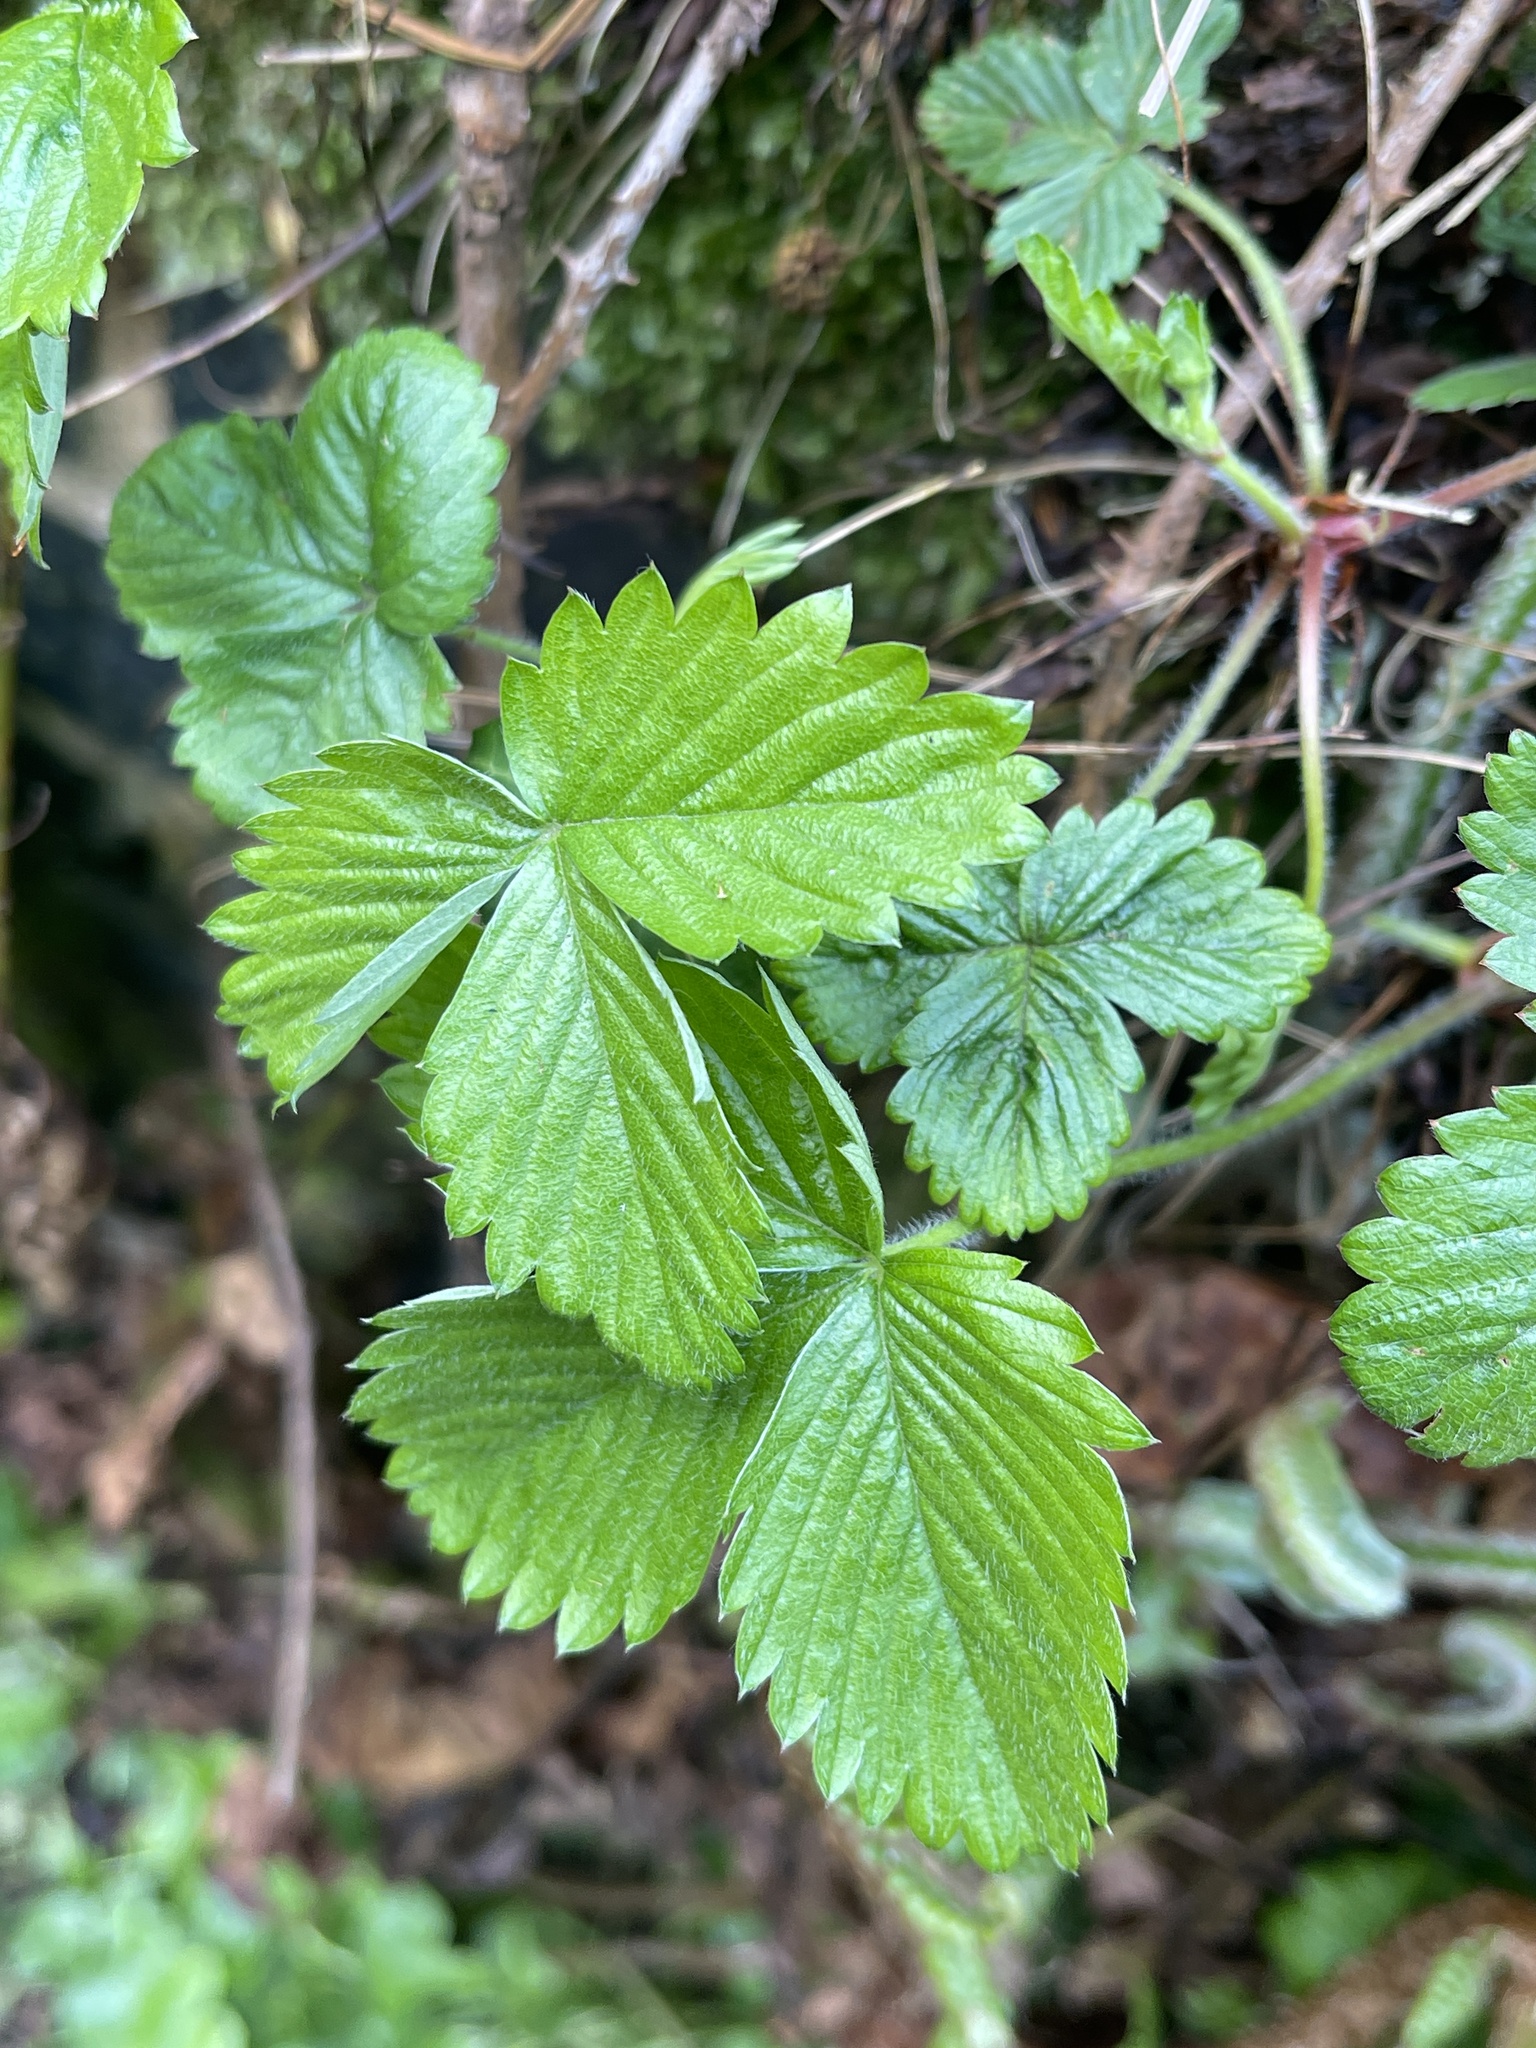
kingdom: Plantae
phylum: Tracheophyta
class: Magnoliopsida
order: Rosales
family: Rosaceae
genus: Fragaria
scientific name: Fragaria vesca
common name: Wild strawberry
